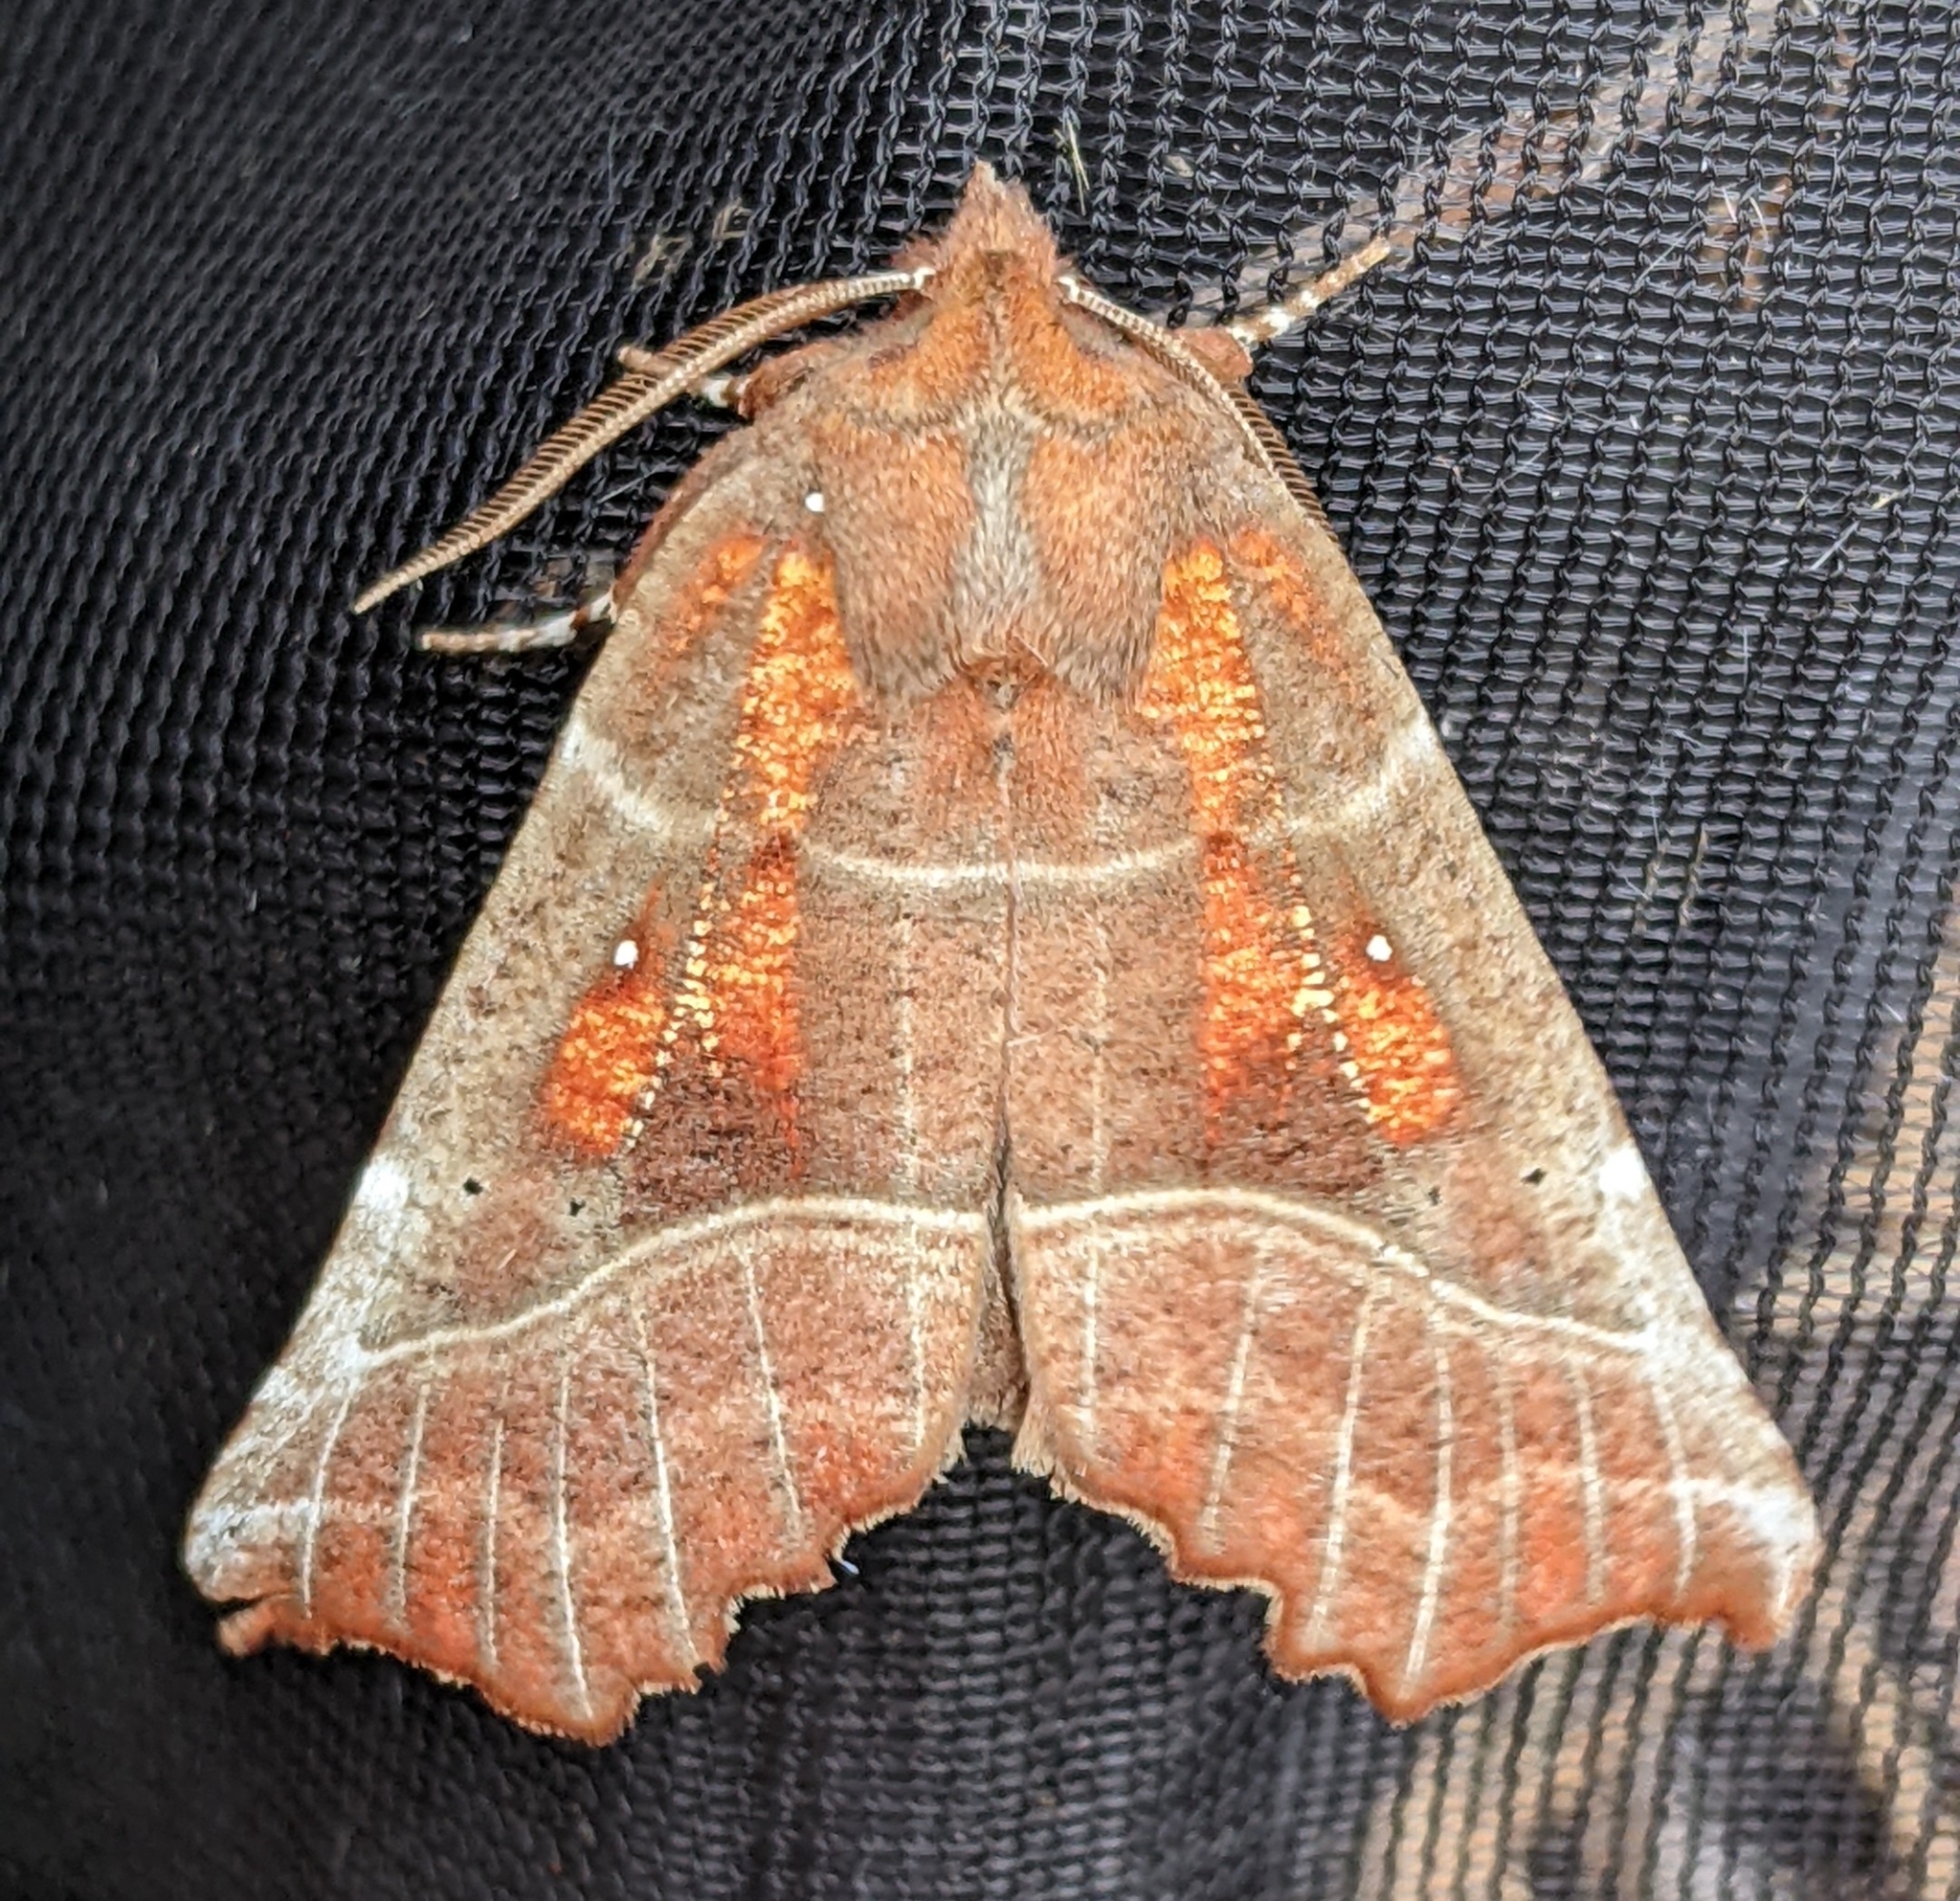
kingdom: Animalia
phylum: Arthropoda
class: Insecta
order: Lepidoptera
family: Erebidae
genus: Scoliopteryx
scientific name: Scoliopteryx libatrix
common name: Herald
